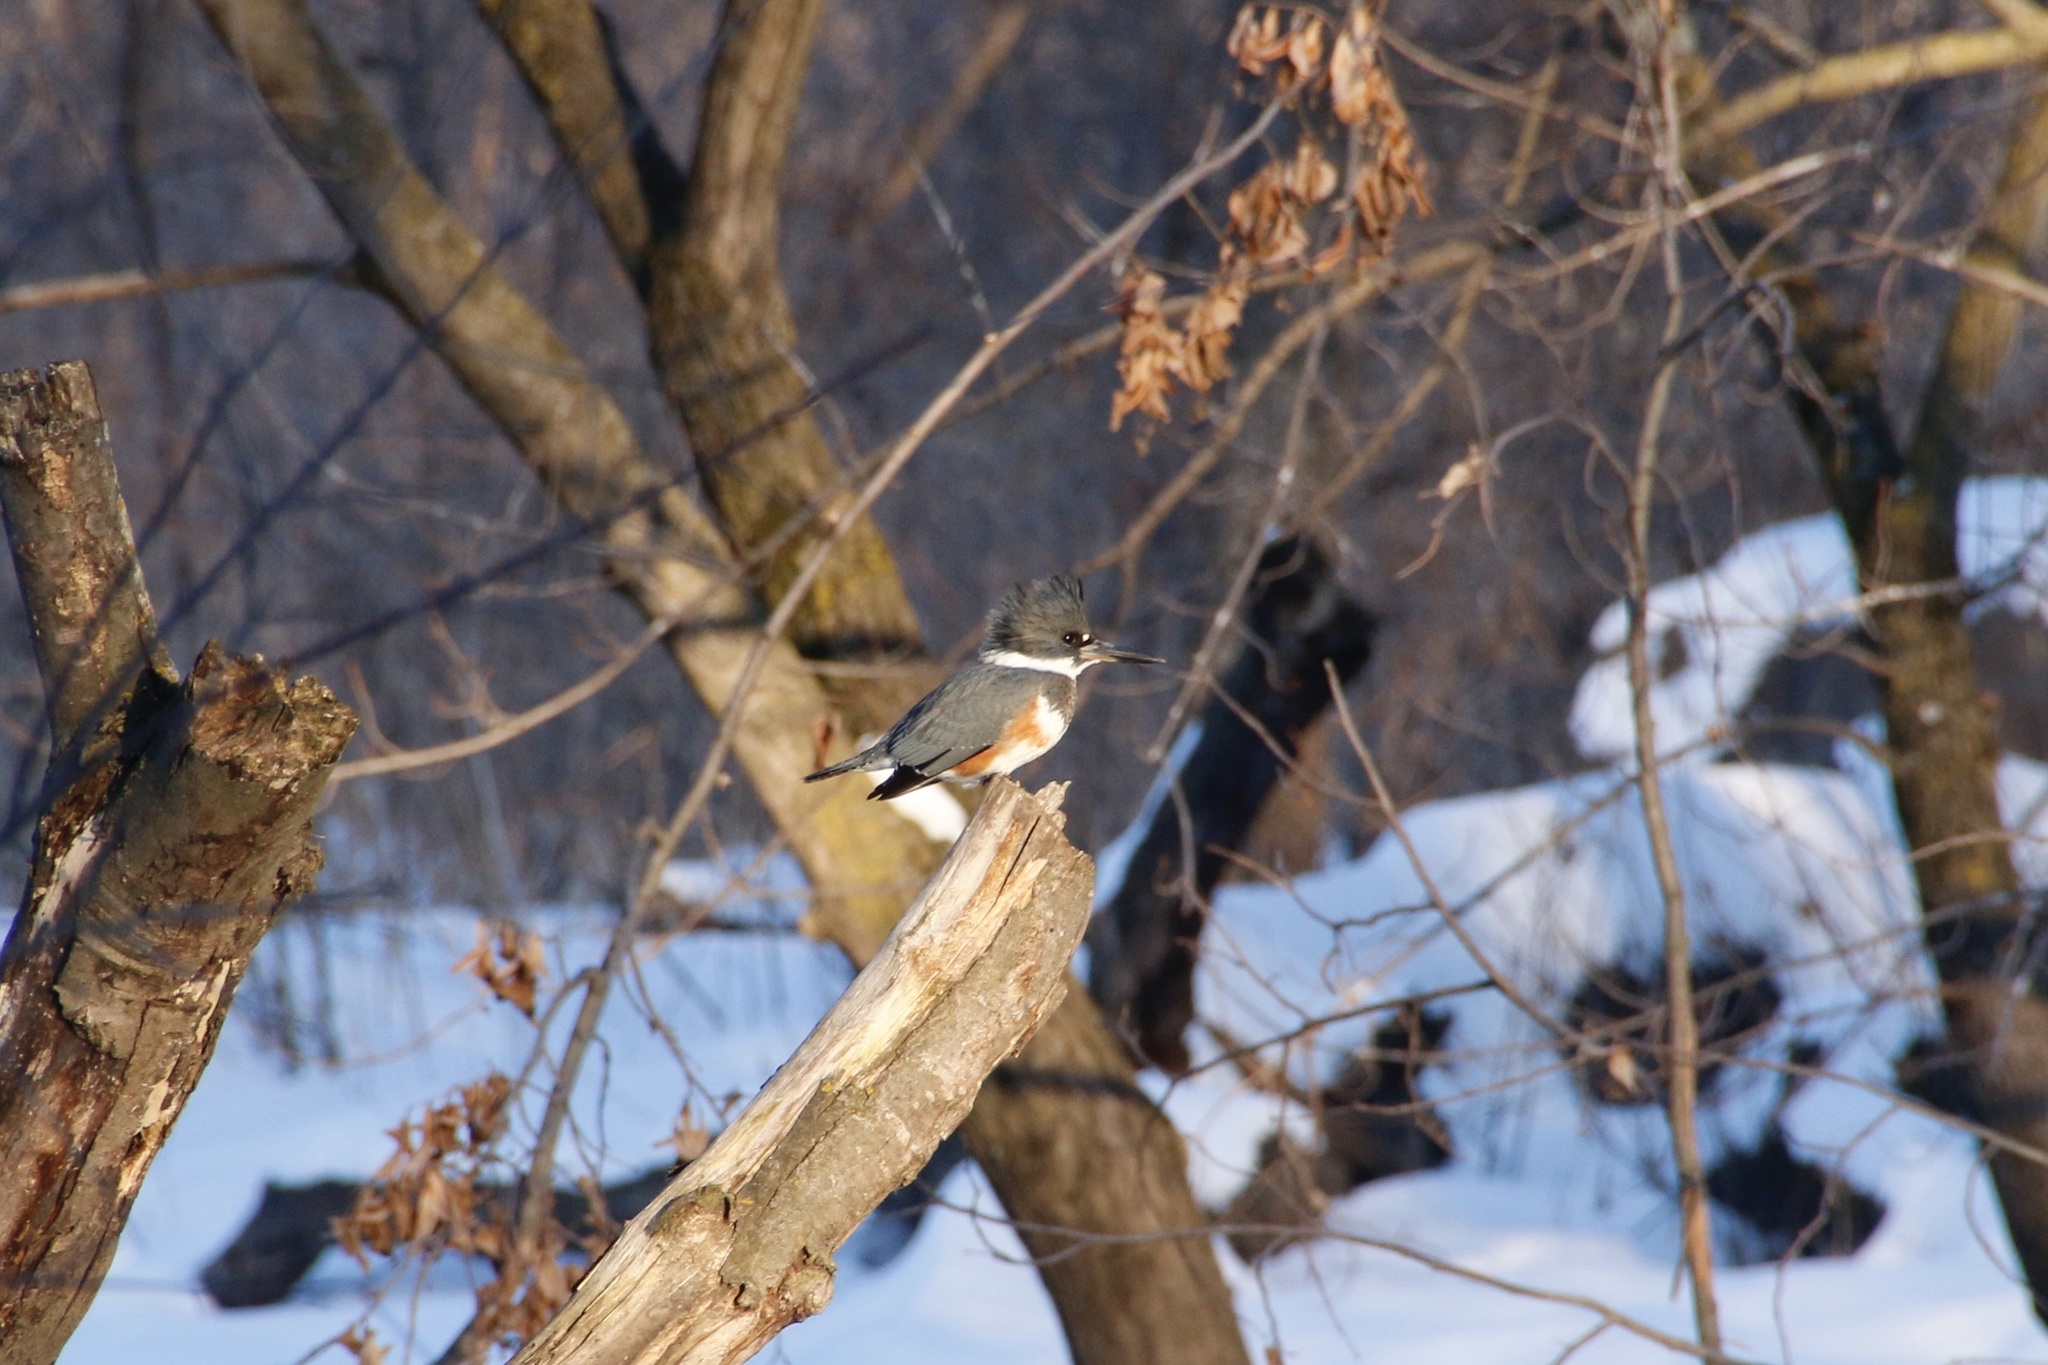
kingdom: Animalia
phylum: Chordata
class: Aves
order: Coraciiformes
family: Alcedinidae
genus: Megaceryle
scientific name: Megaceryle alcyon
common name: Belted kingfisher
